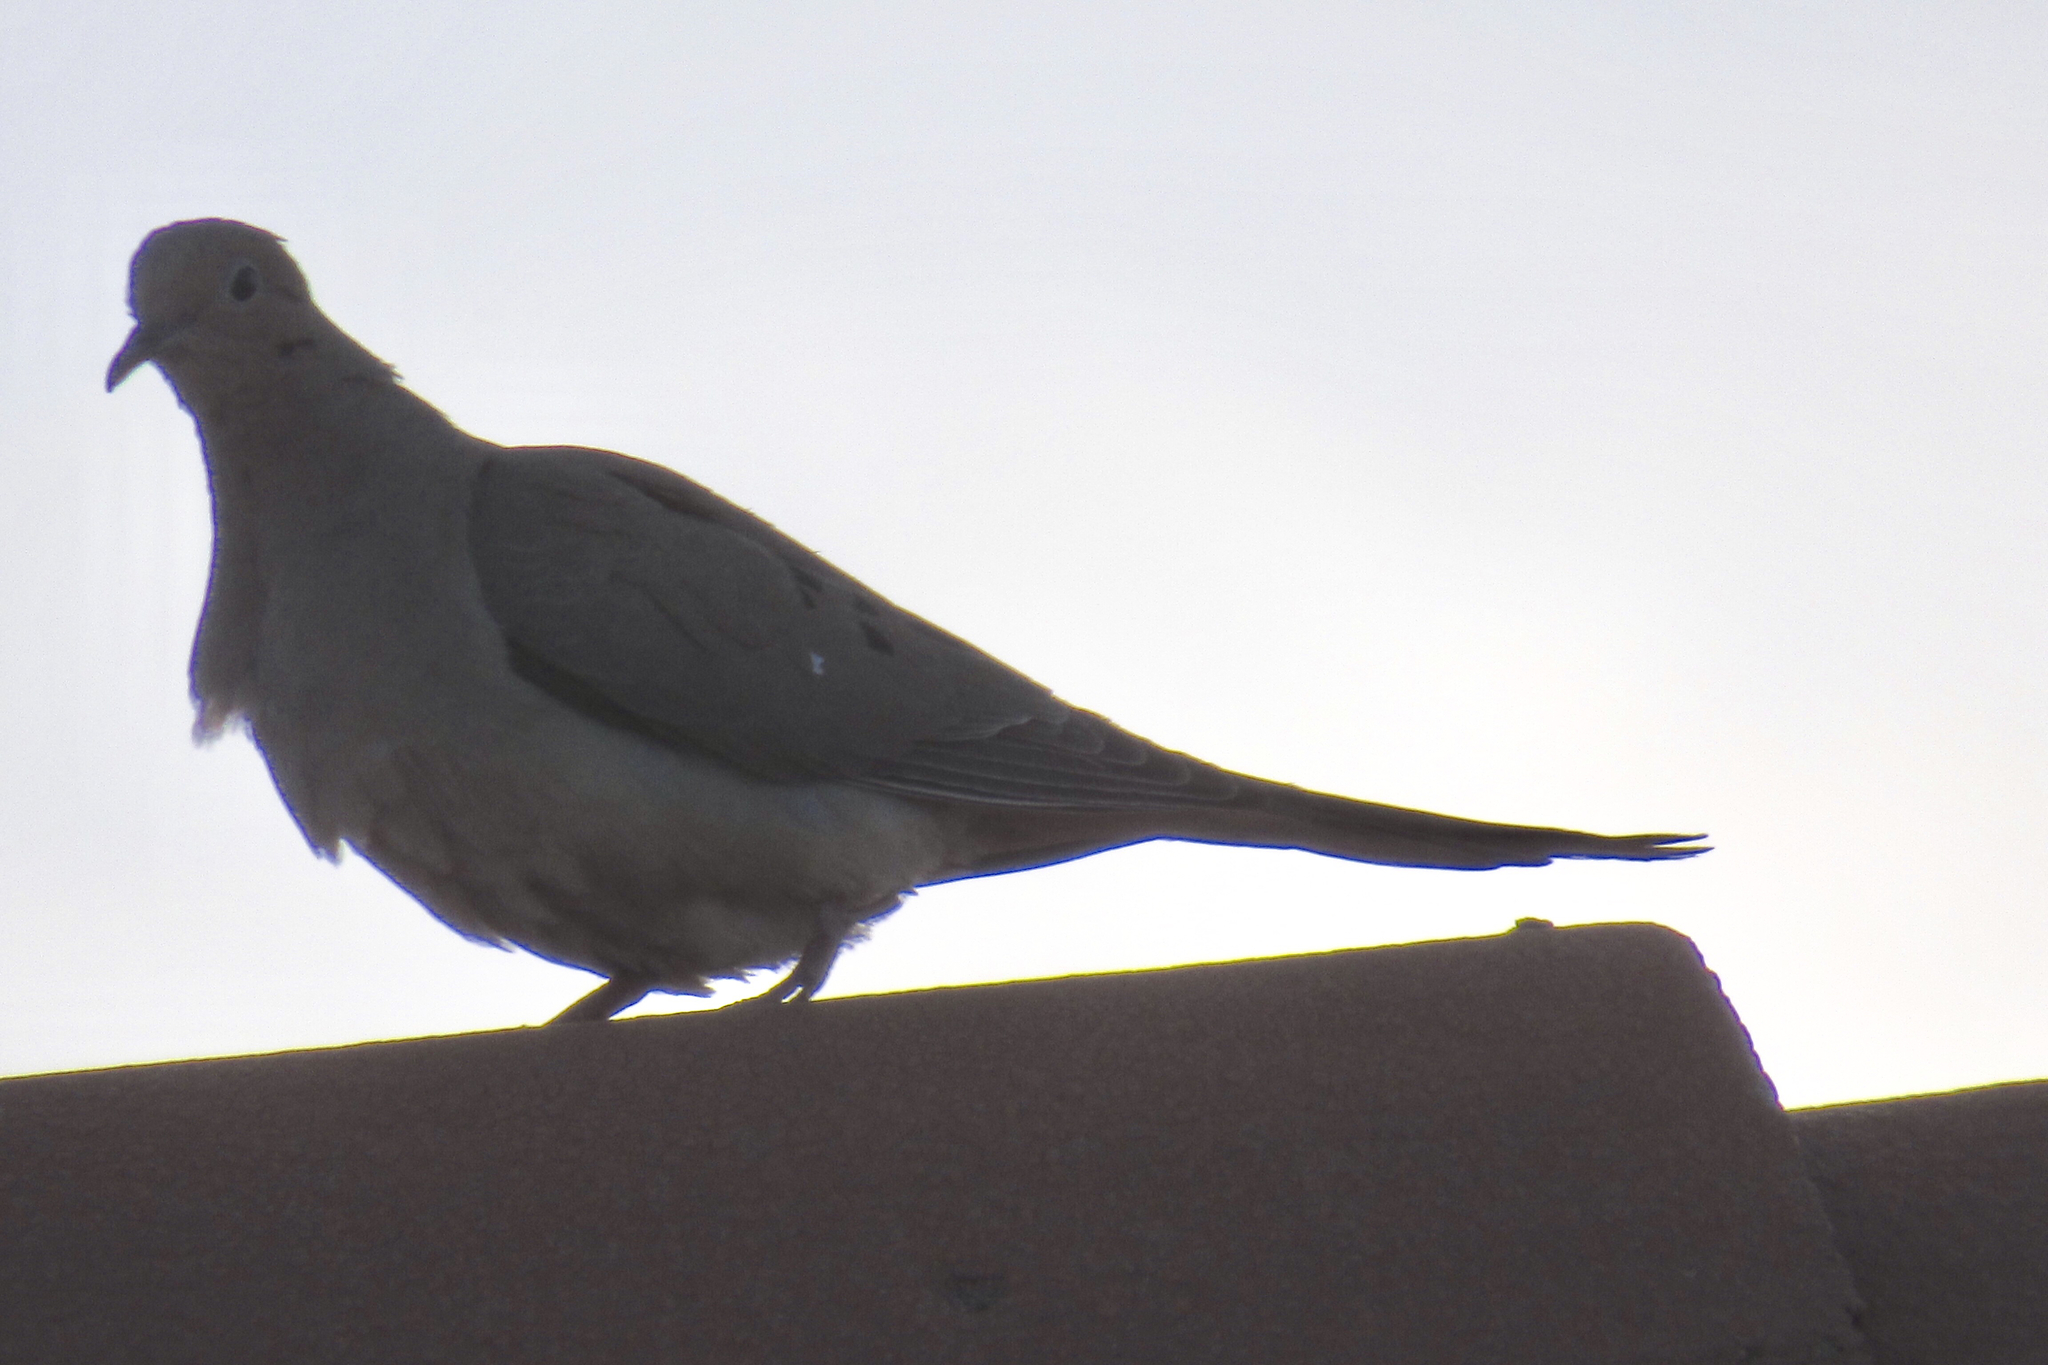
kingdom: Animalia
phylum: Chordata
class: Aves
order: Columbiformes
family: Columbidae
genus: Zenaida
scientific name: Zenaida macroura
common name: Mourning dove
